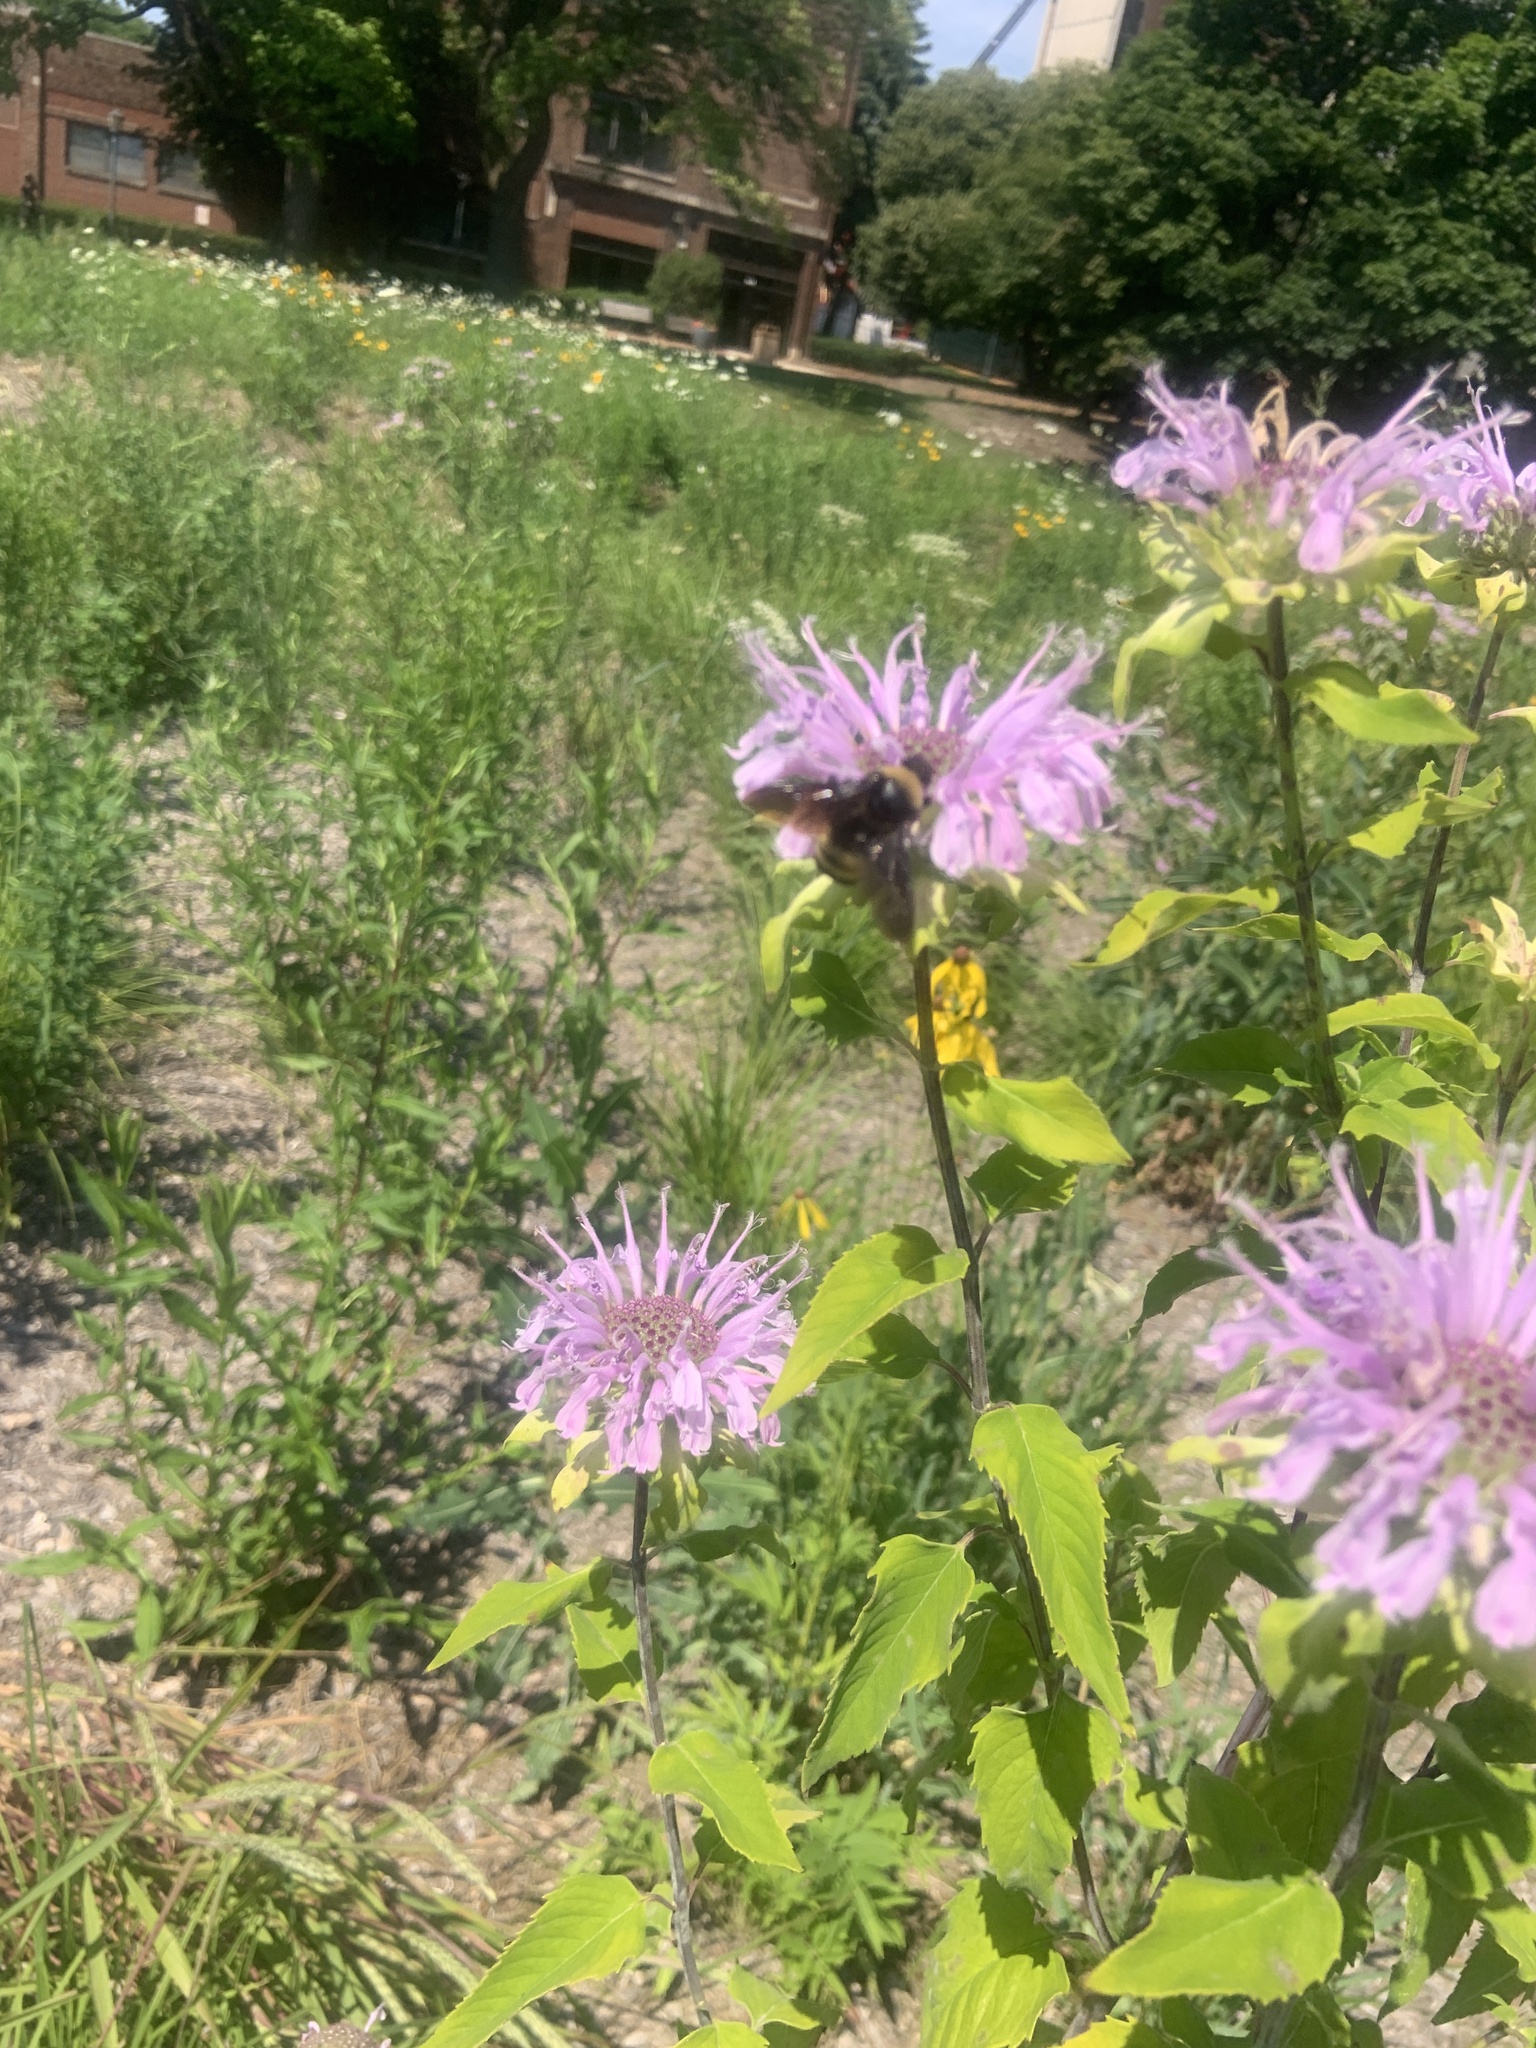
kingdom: Animalia
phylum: Arthropoda
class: Insecta
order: Hymenoptera
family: Apidae
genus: Bombus
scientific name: Bombus auricomus
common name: Black and gold bumble bee
